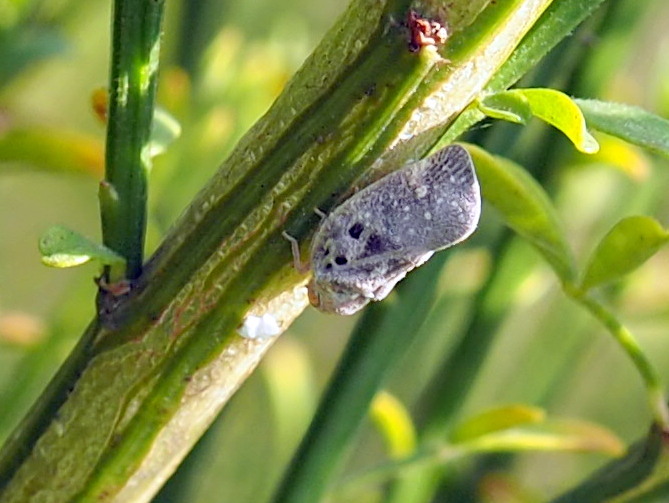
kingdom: Animalia
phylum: Arthropoda
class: Insecta
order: Hemiptera
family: Flatidae
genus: Metcalfa
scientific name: Metcalfa pruinosa
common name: Citrus flatid planthopper
